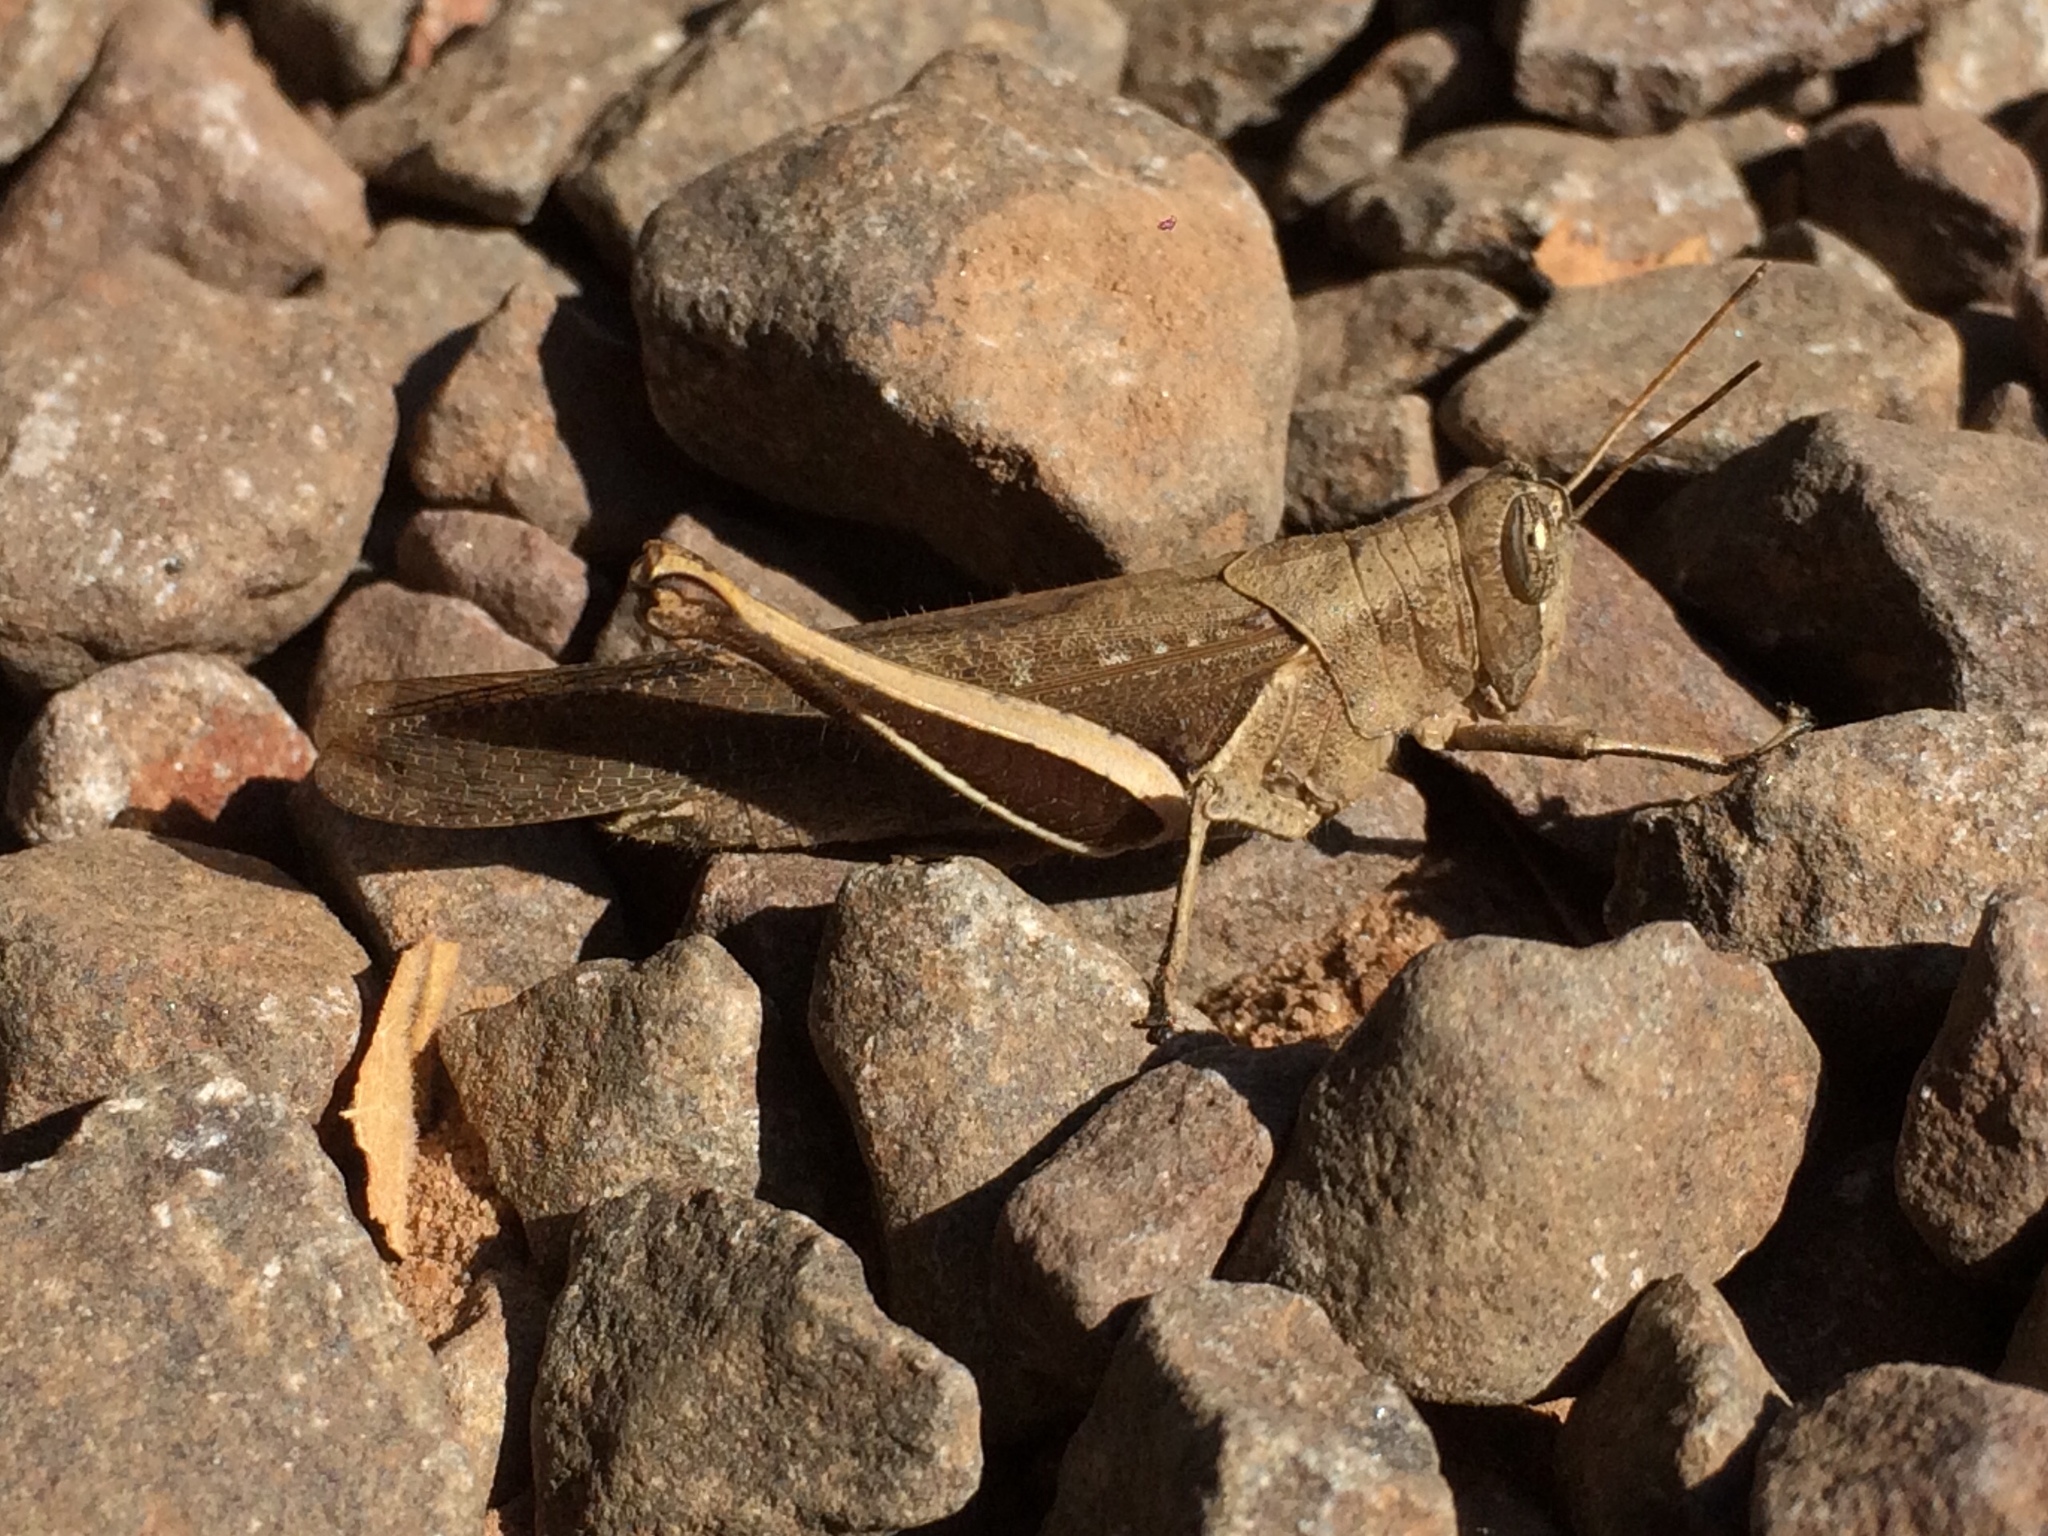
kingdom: Animalia
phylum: Arthropoda
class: Insecta
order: Orthoptera
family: Acrididae
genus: Abracris
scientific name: Abracris flavolineata
